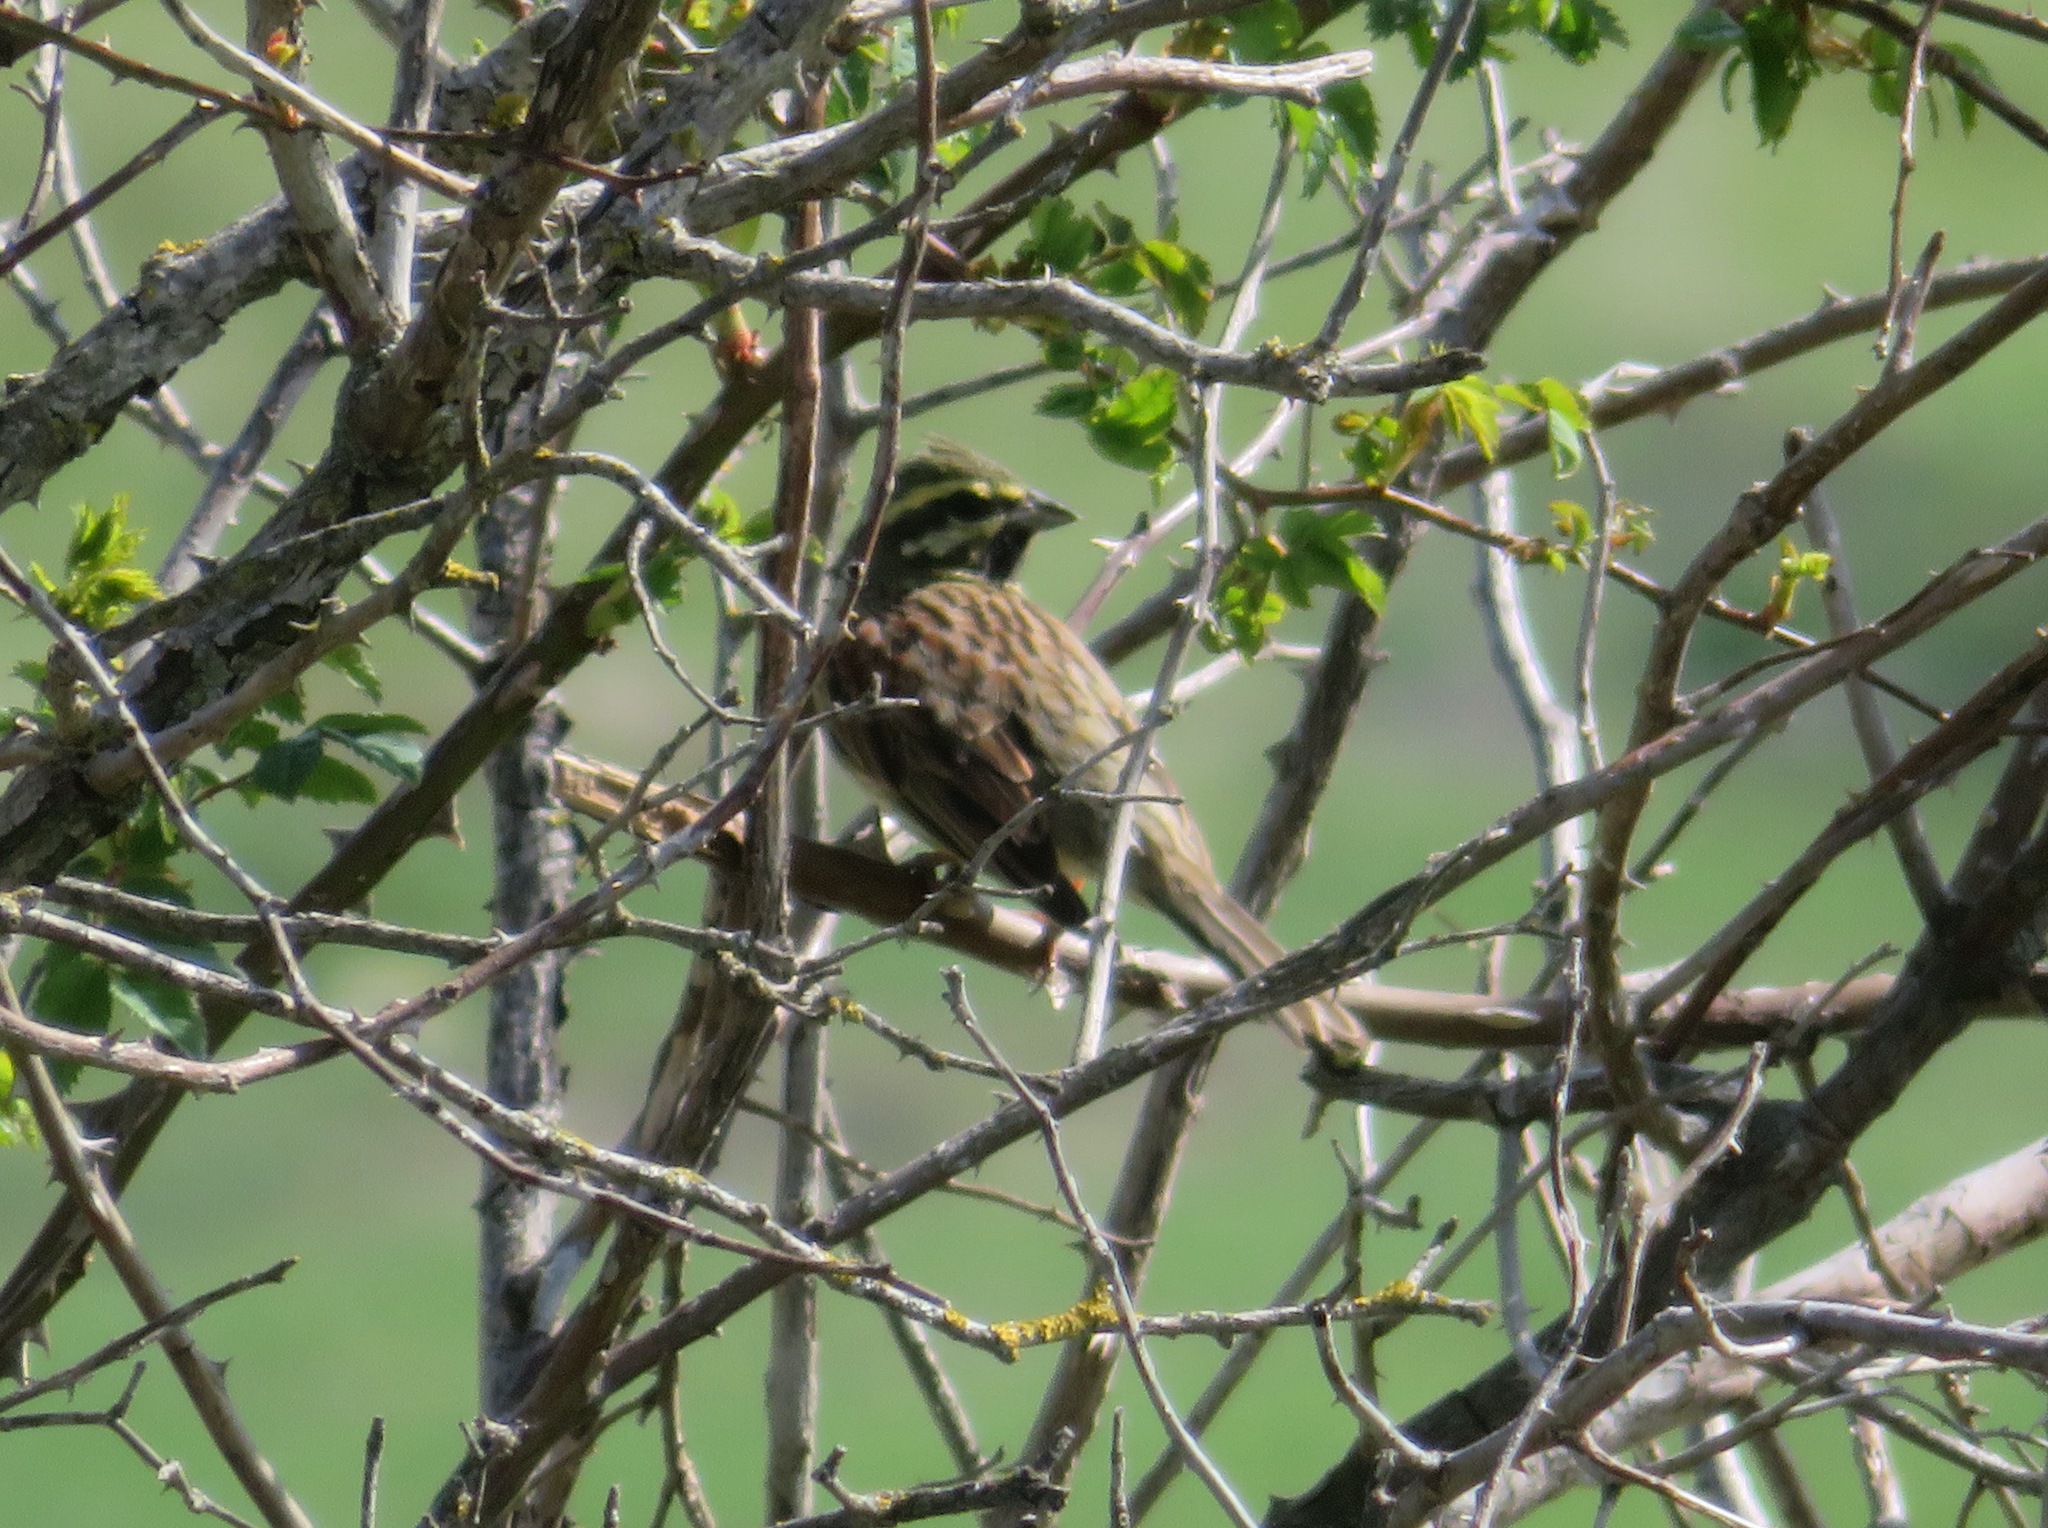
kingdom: Animalia
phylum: Chordata
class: Aves
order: Passeriformes
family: Emberizidae
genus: Emberiza
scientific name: Emberiza cirlus
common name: Cirl bunting
